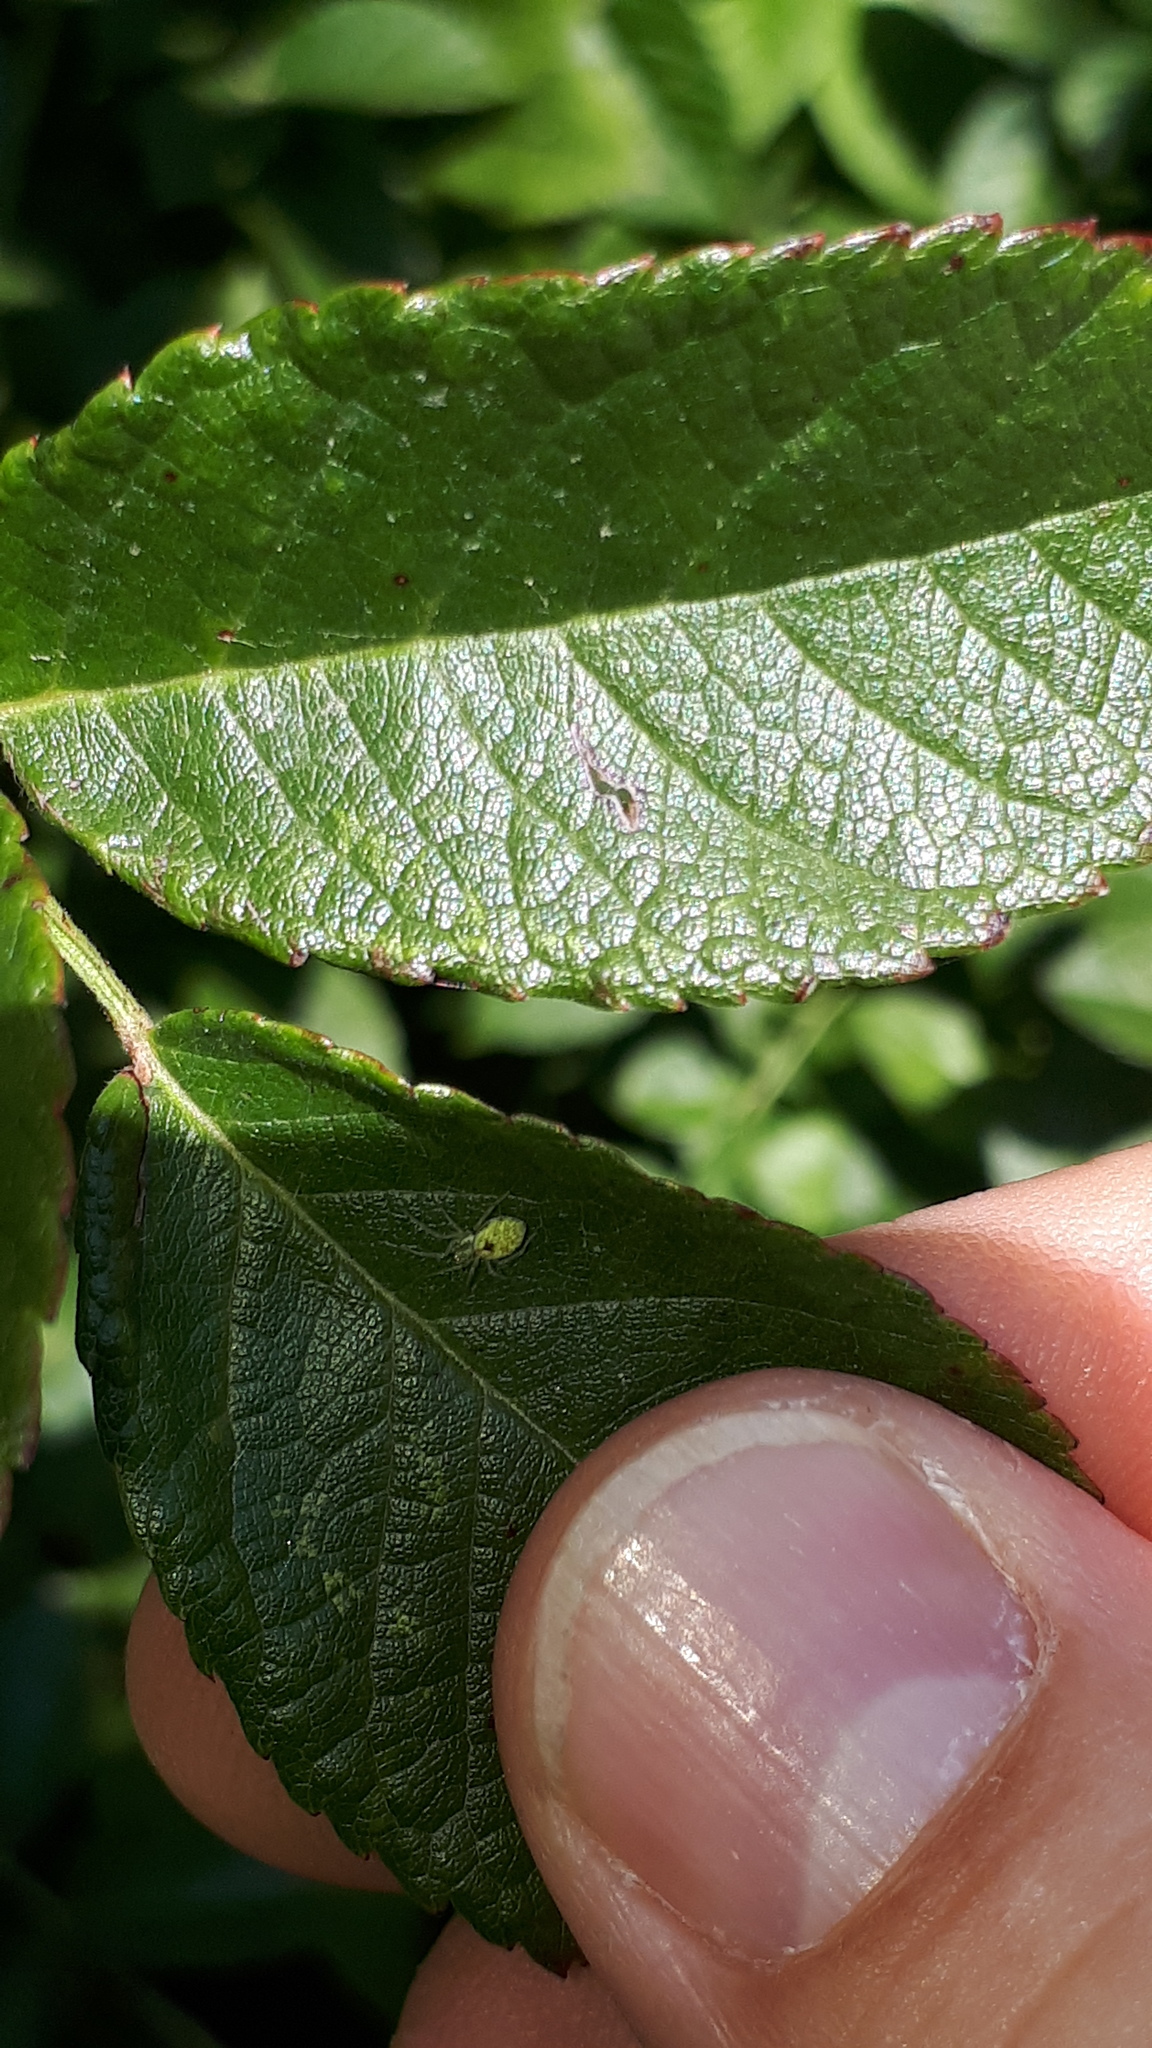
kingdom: Animalia
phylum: Arthropoda
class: Arachnida
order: Araneae
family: Dictynidae
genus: Nigma
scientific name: Nigma walckenaeri
